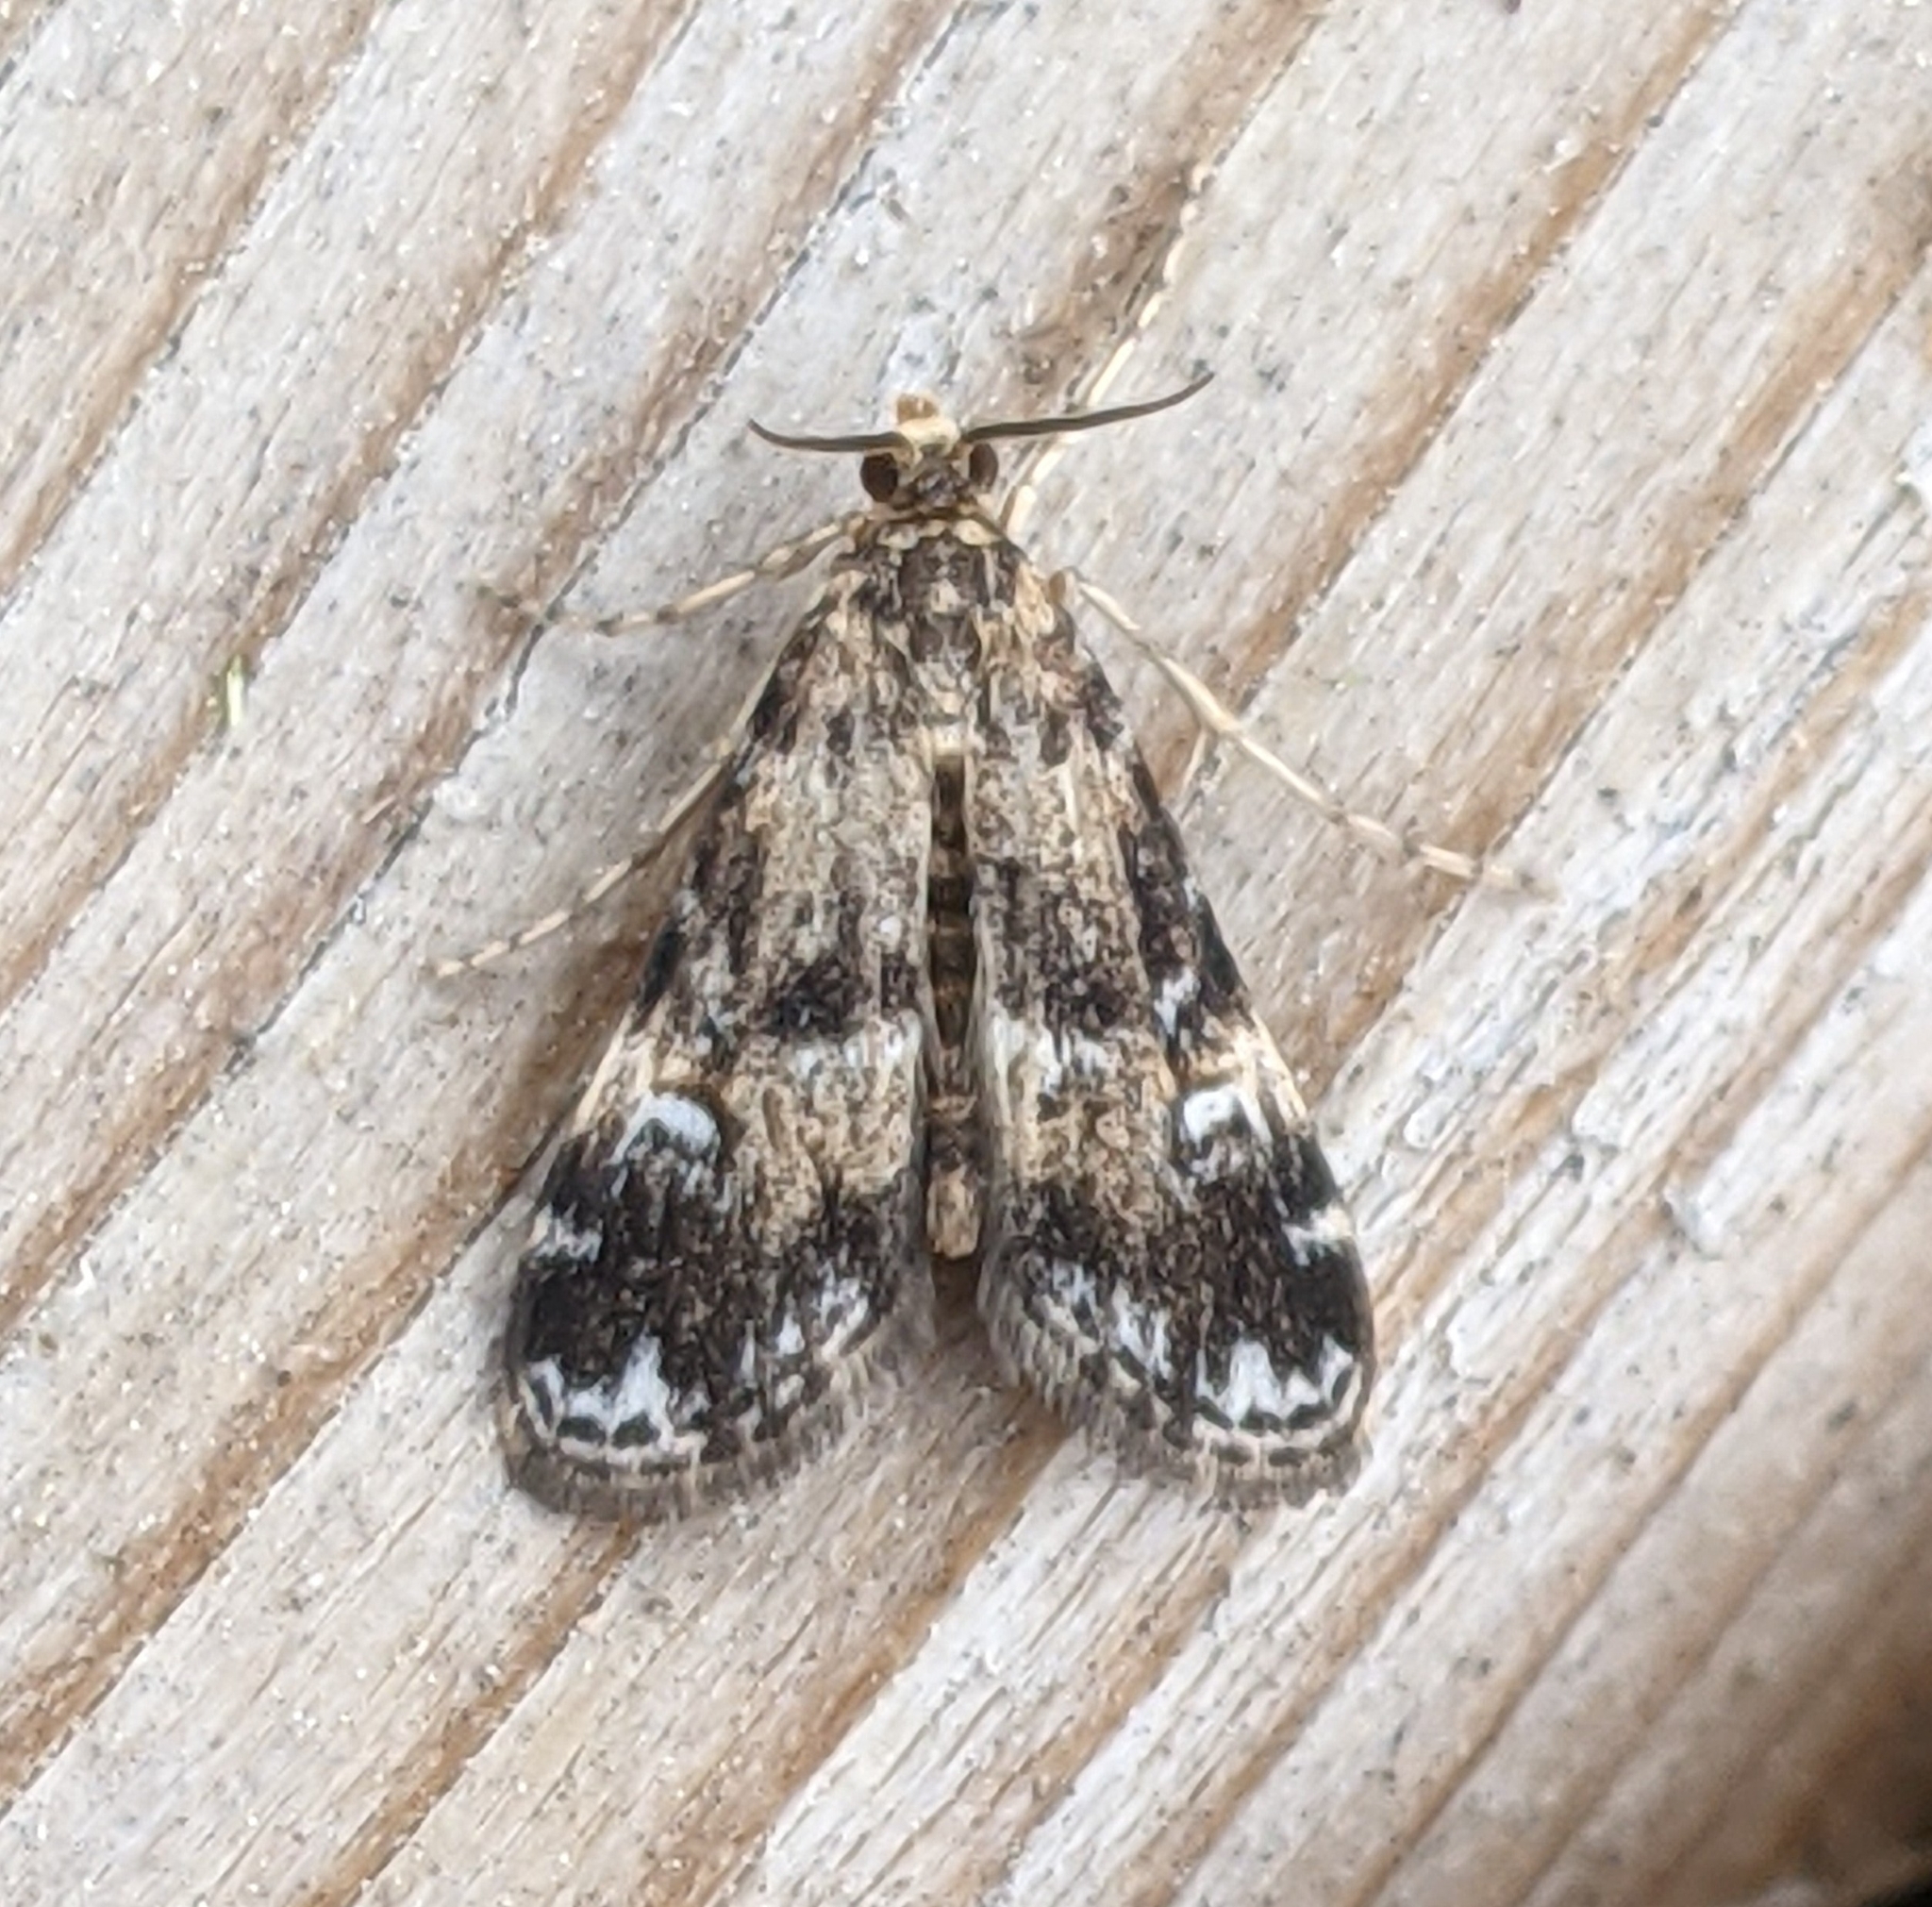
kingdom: Animalia
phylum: Arthropoda
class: Insecta
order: Lepidoptera
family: Crambidae
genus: Elophila
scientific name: Elophila obliteralis
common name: Waterlily leafcutter moth
